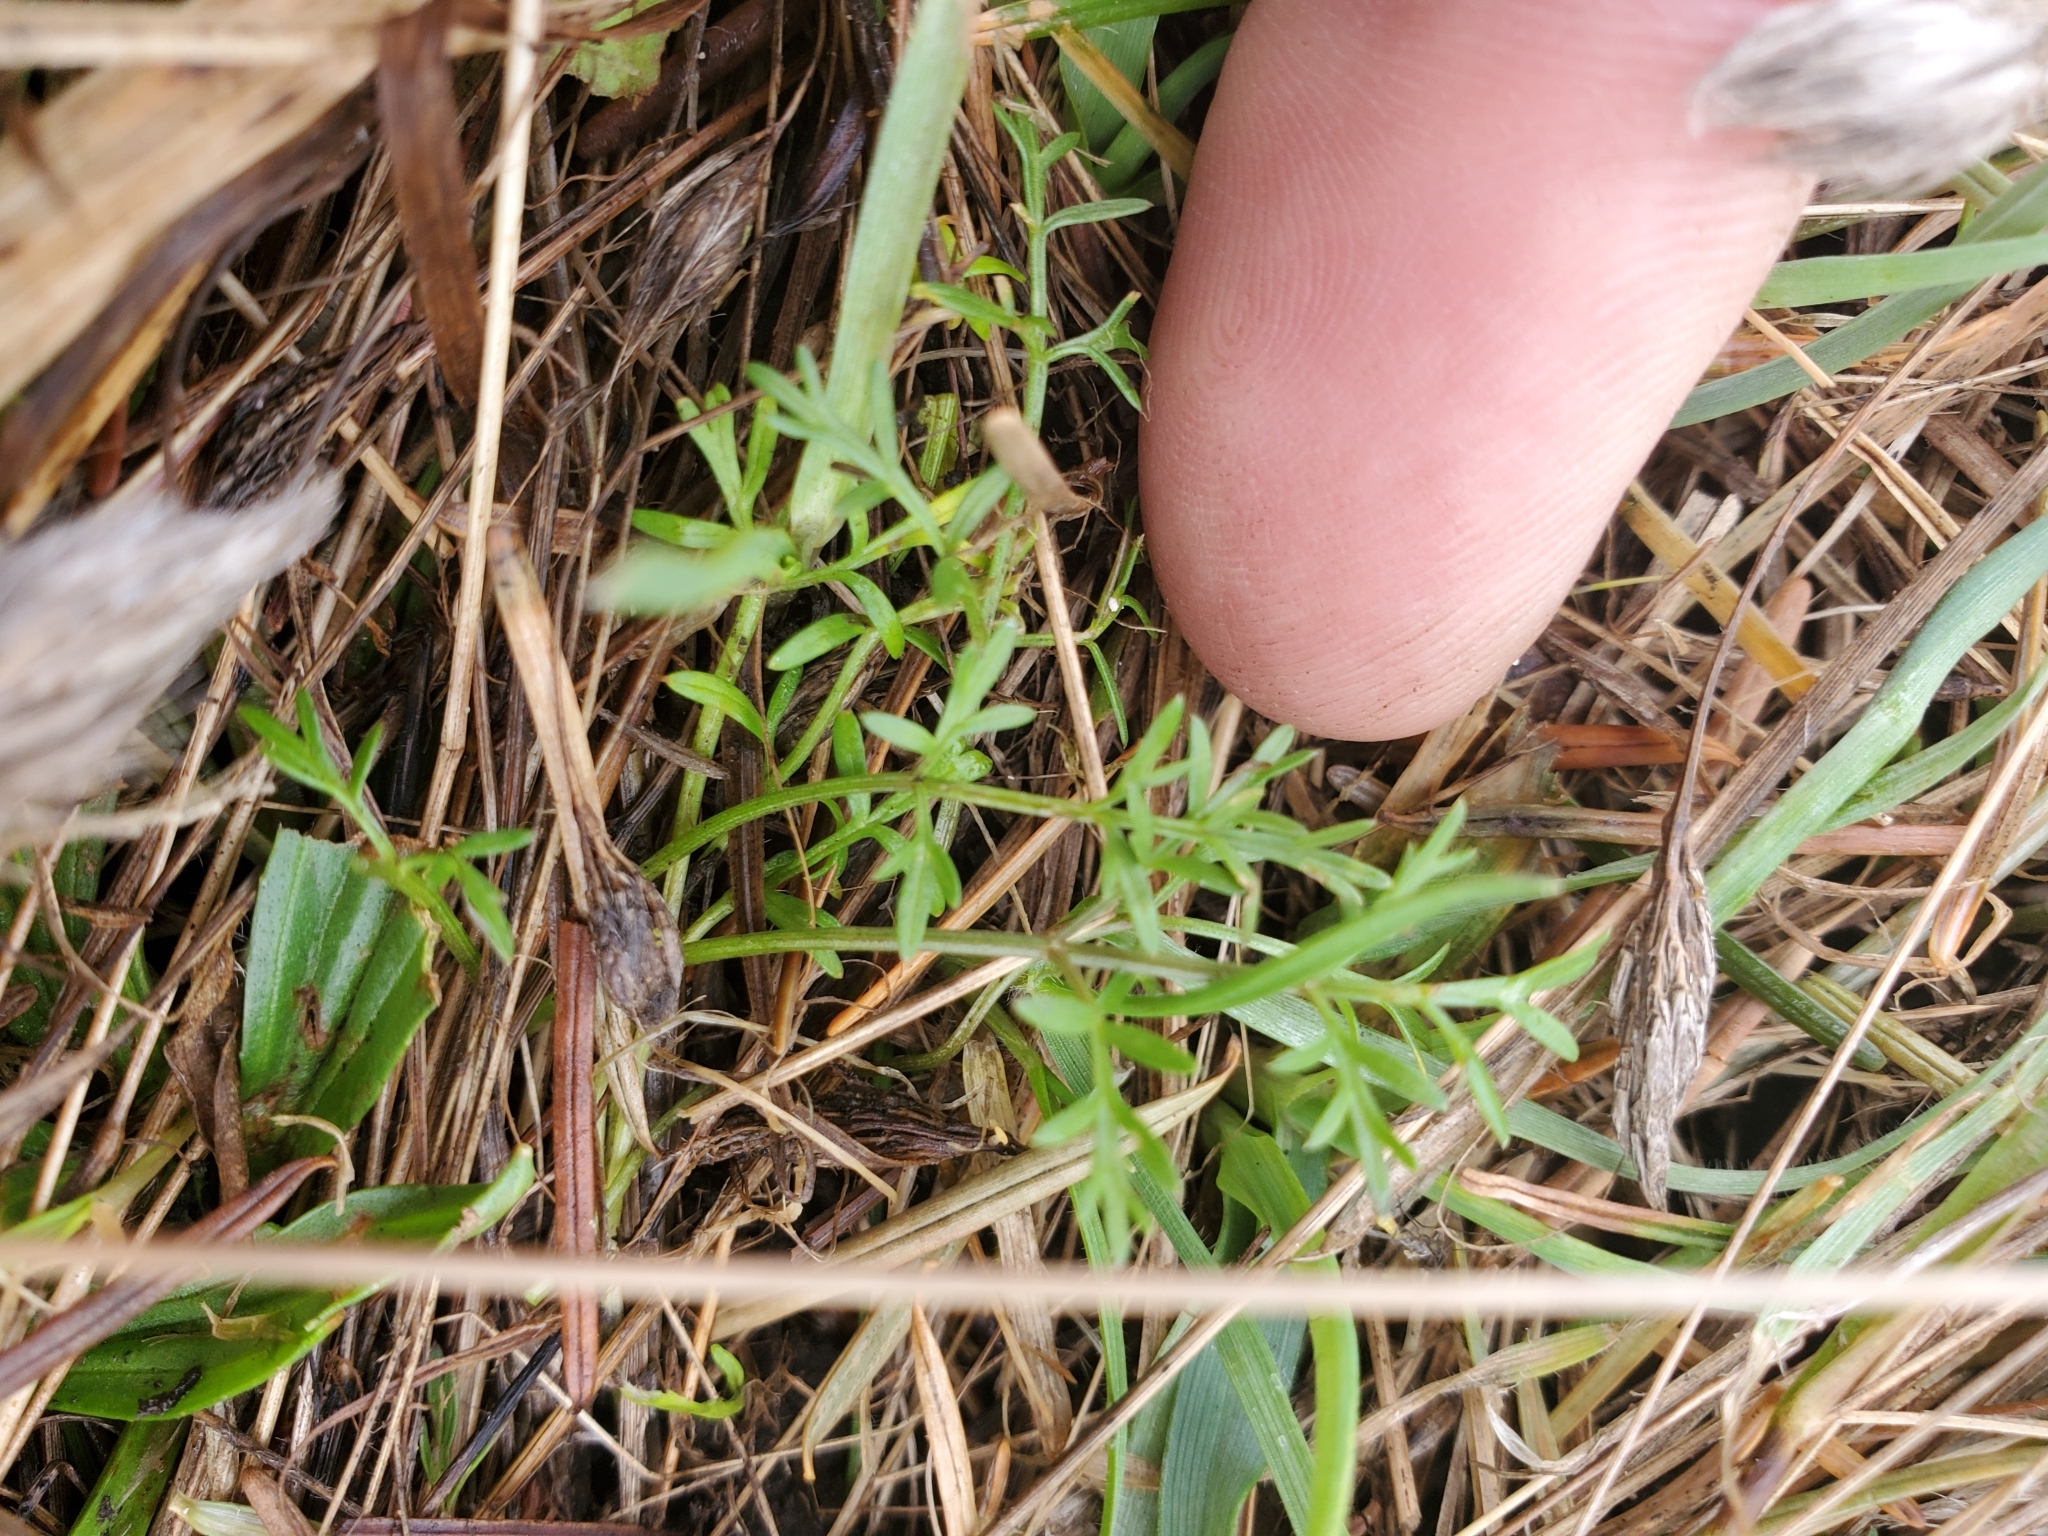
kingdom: Plantae
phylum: Tracheophyta
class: Magnoliopsida
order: Apiales
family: Apiaceae
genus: Lomatium
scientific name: Lomatium utriculatum
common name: Fine-leaf desert-parsley
